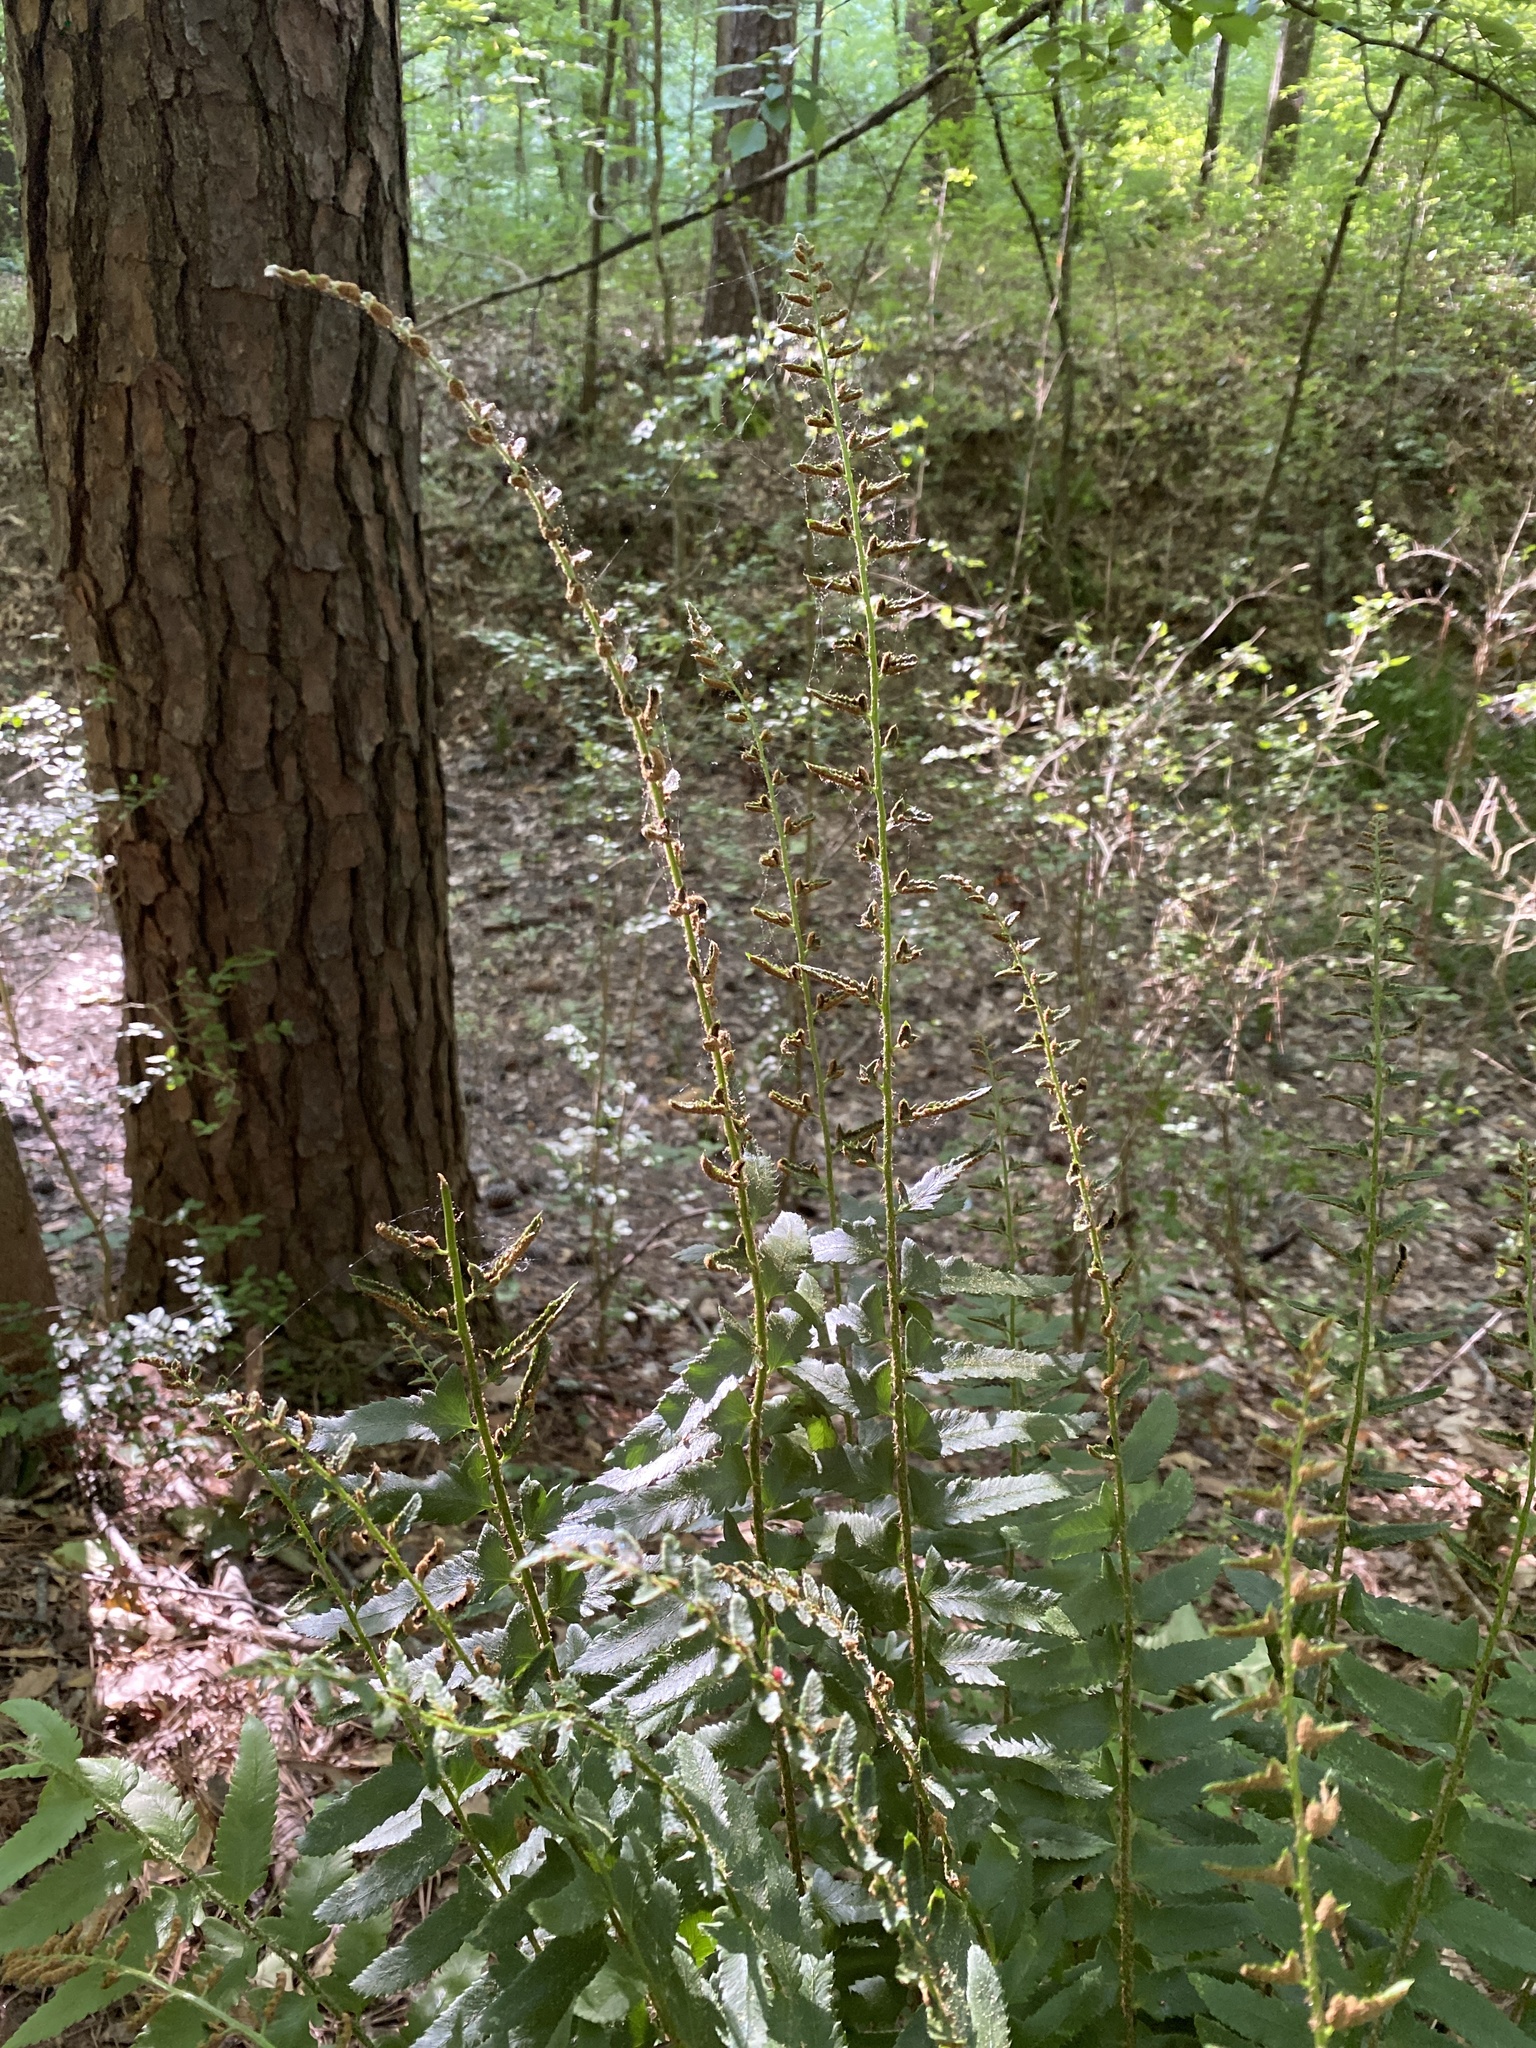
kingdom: Plantae
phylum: Tracheophyta
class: Polypodiopsida
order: Polypodiales
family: Dryopteridaceae
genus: Polystichum
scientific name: Polystichum acrostichoides
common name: Christmas fern
